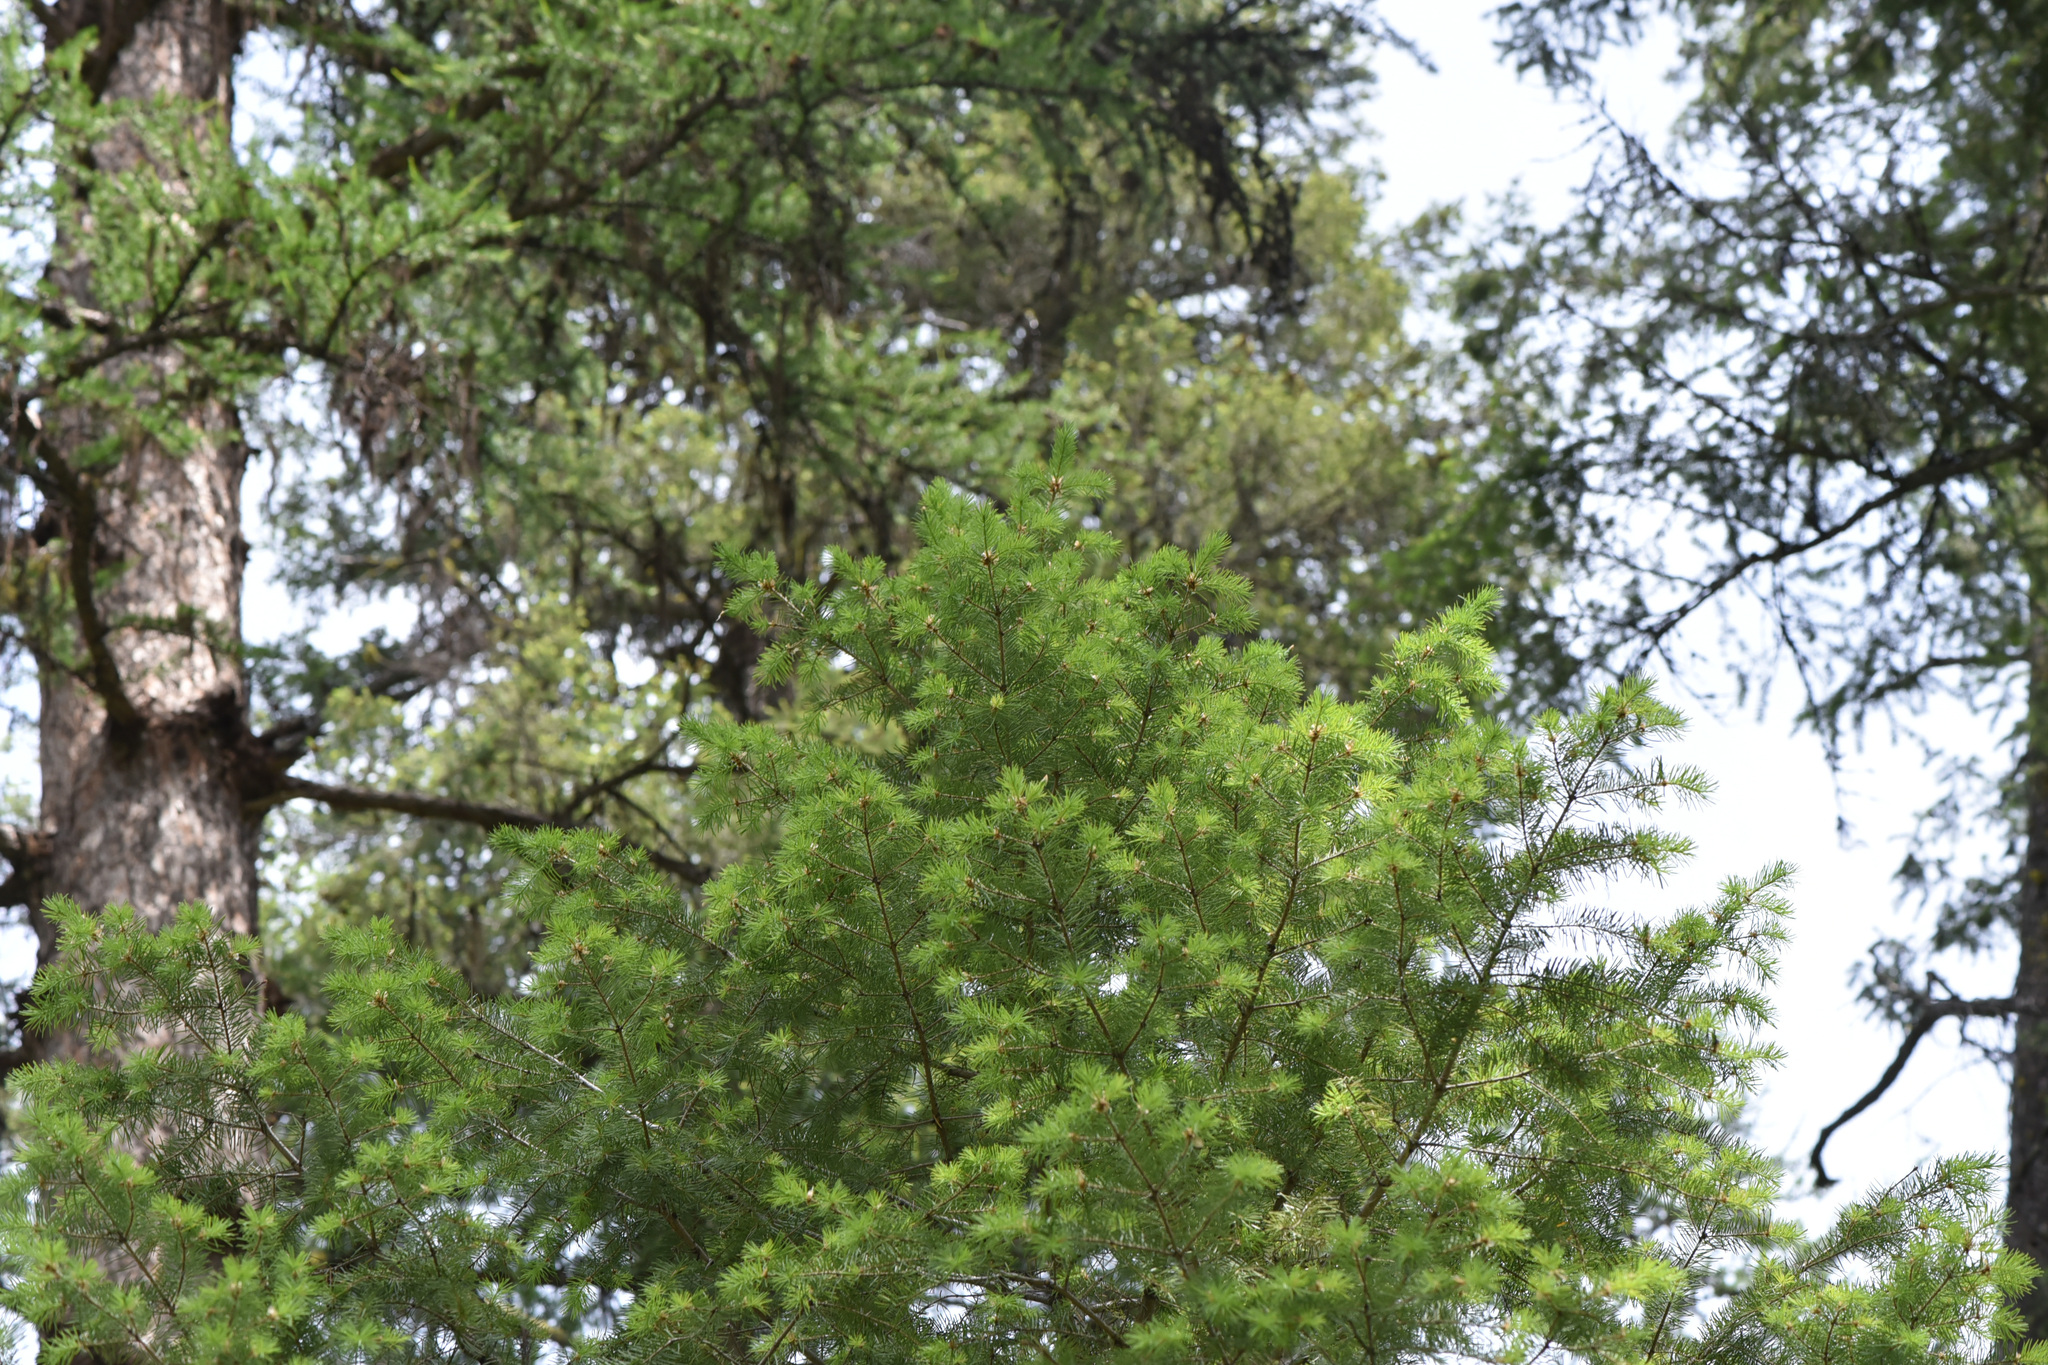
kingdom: Plantae
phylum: Tracheophyta
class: Pinopsida
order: Pinales
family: Pinaceae
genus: Pseudotsuga
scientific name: Pseudotsuga menziesii
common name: Douglas fir
